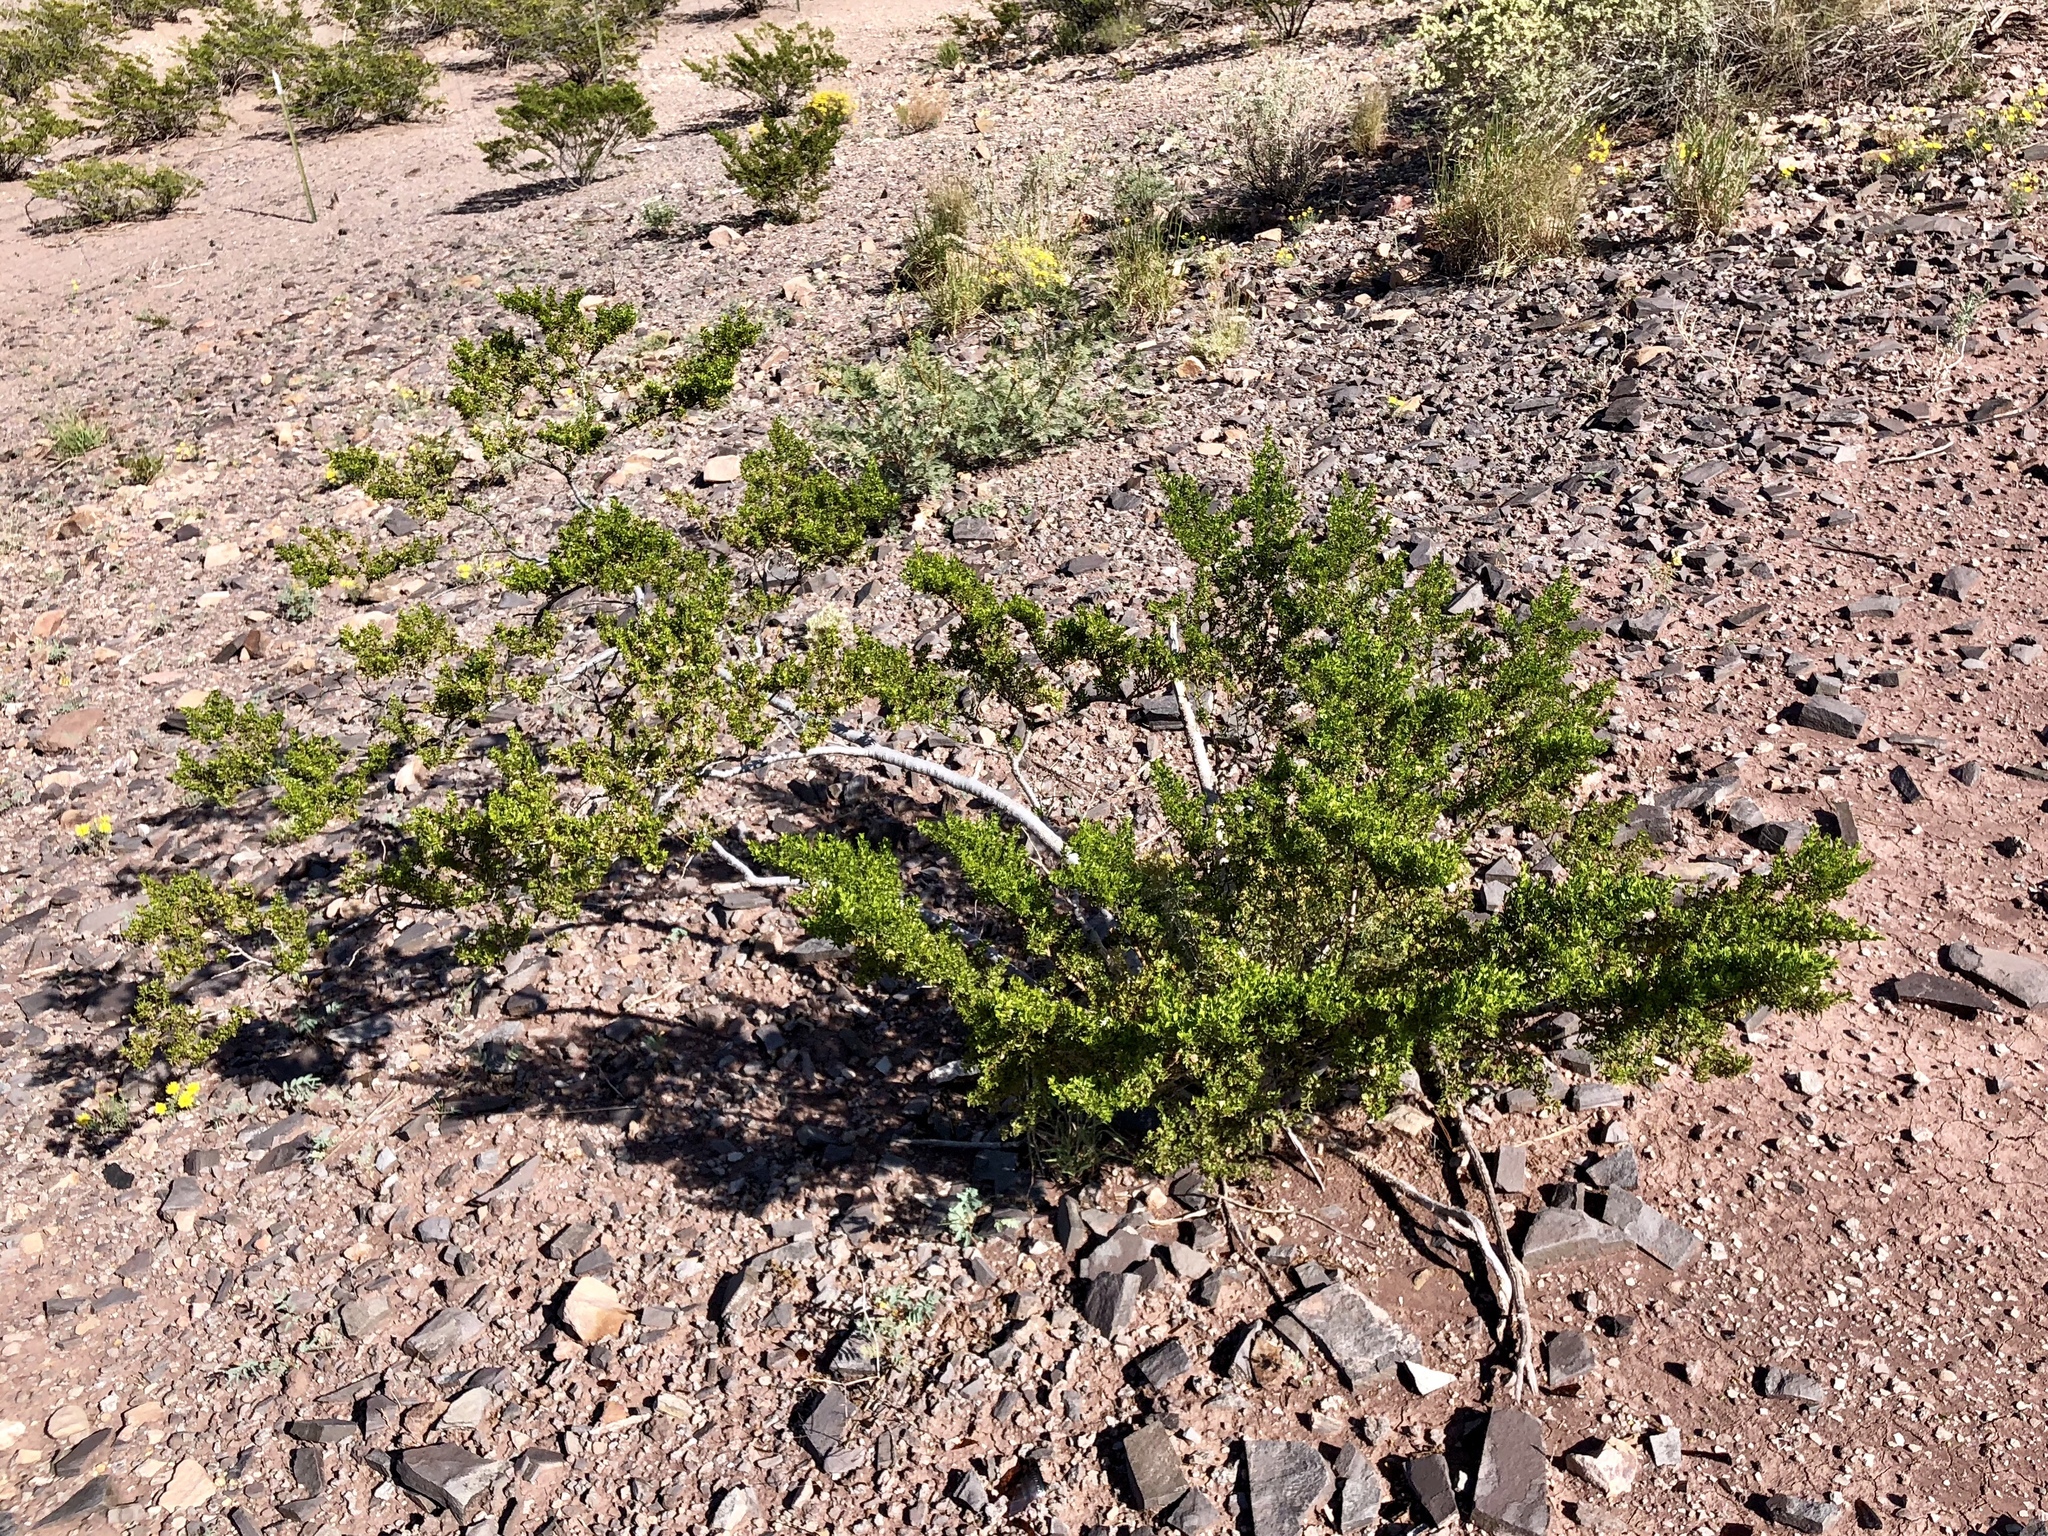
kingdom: Plantae
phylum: Tracheophyta
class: Magnoliopsida
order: Zygophyllales
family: Zygophyllaceae
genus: Larrea
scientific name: Larrea tridentata
